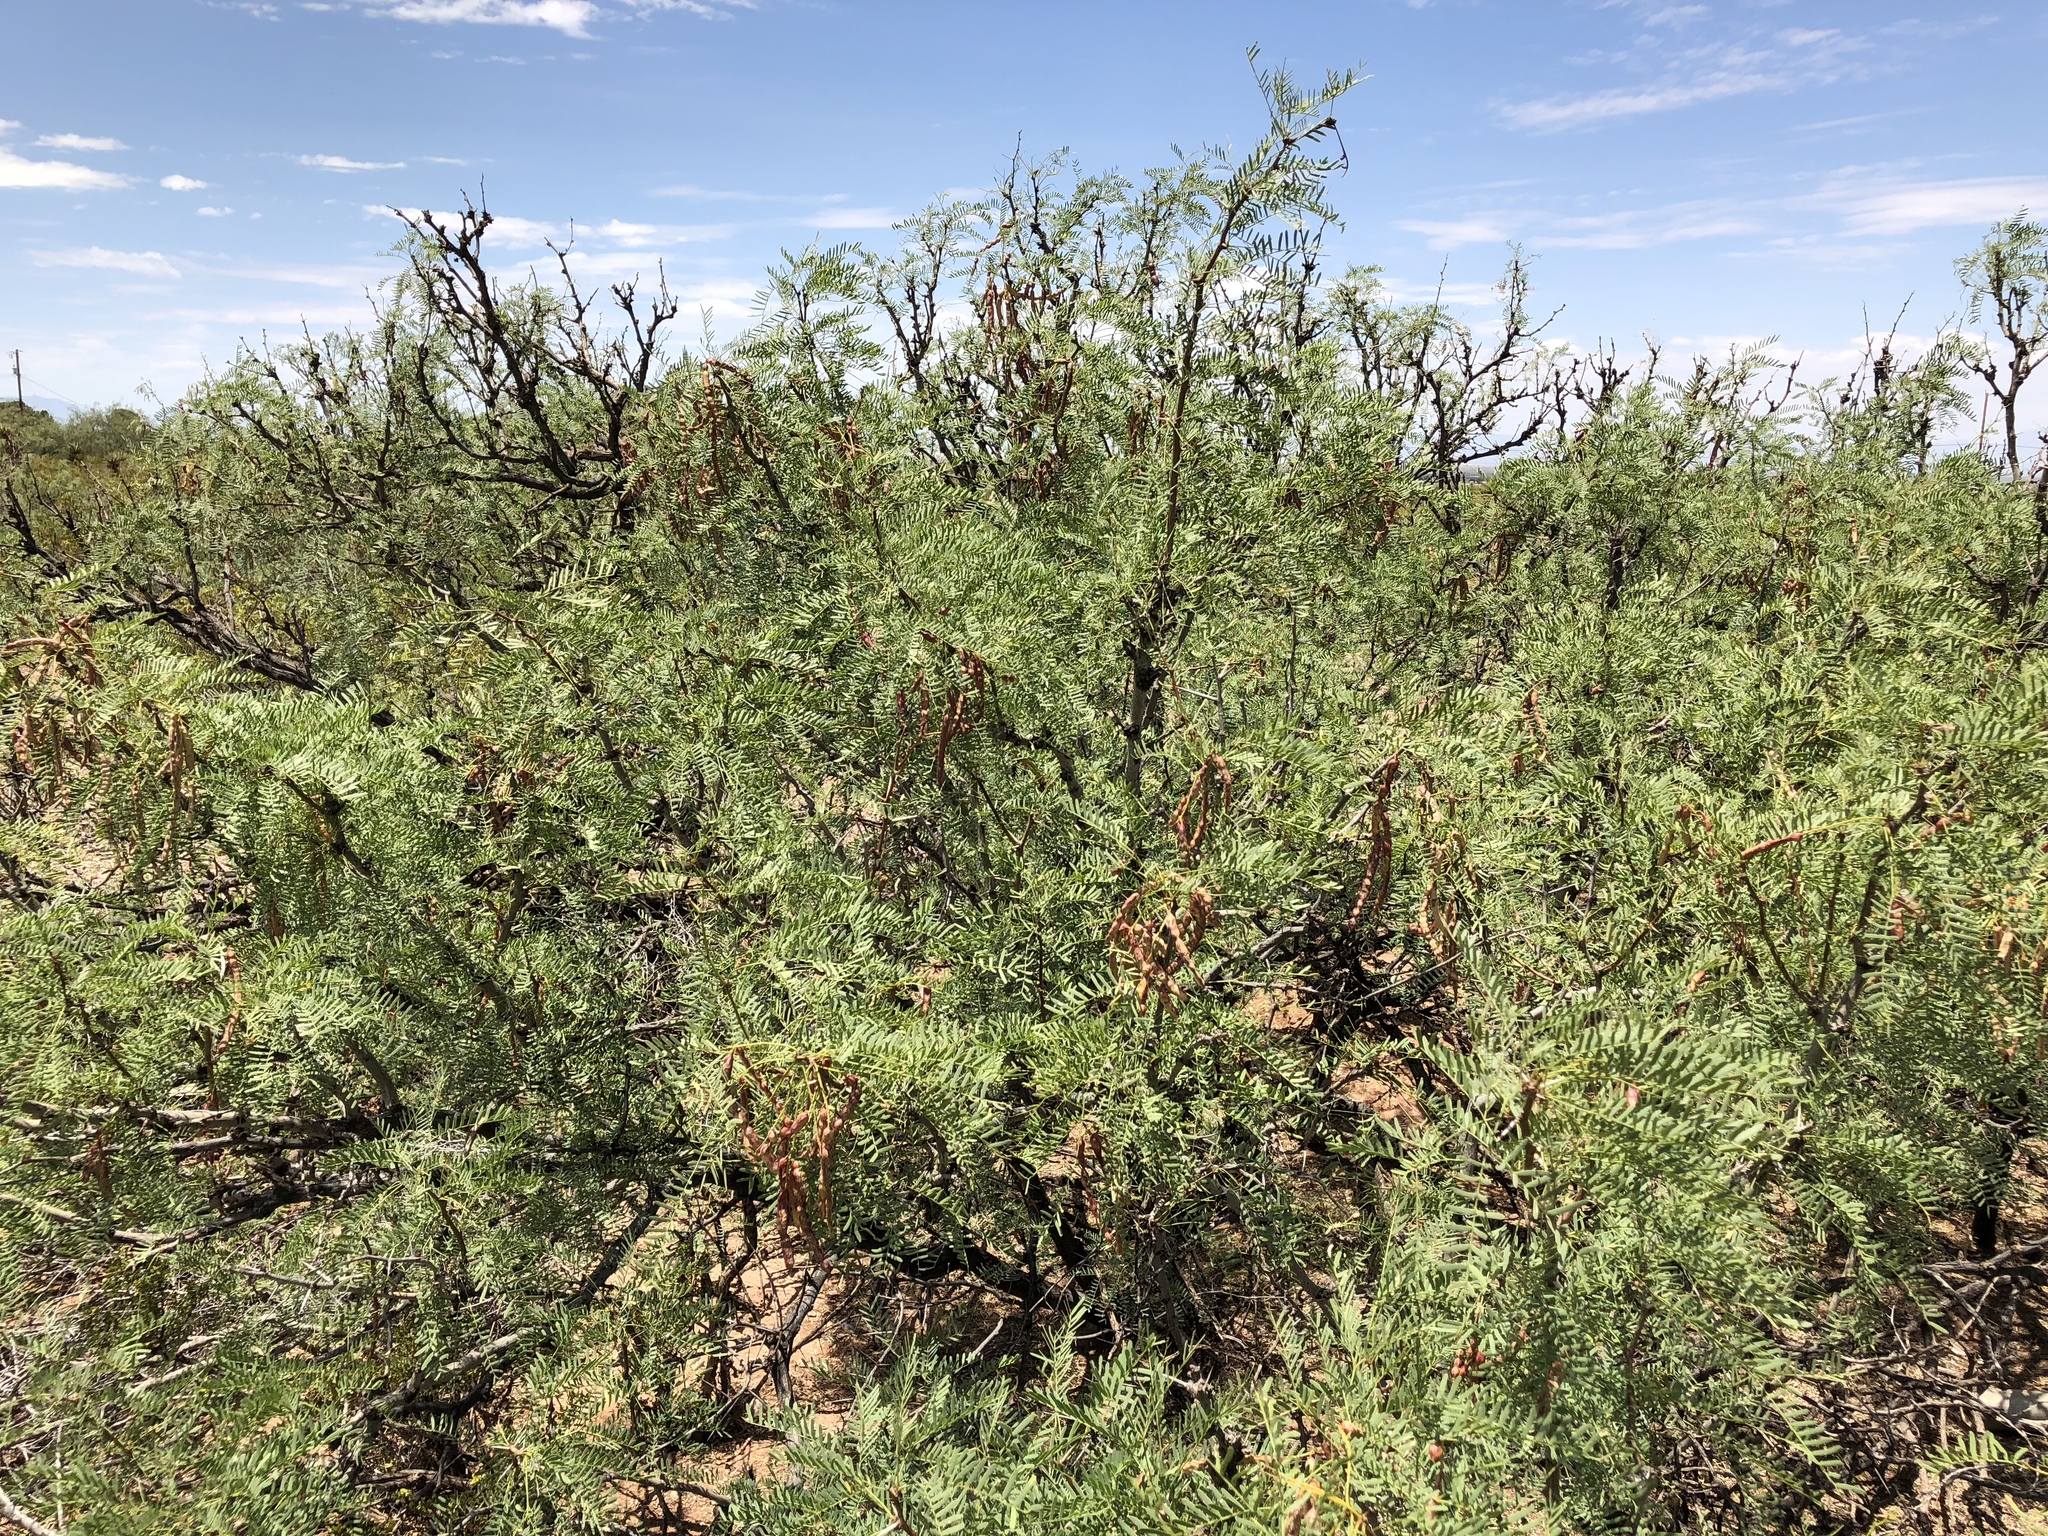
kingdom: Plantae
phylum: Tracheophyta
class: Magnoliopsida
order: Fabales
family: Fabaceae
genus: Prosopis
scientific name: Prosopis glandulosa
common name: Honey mesquite
